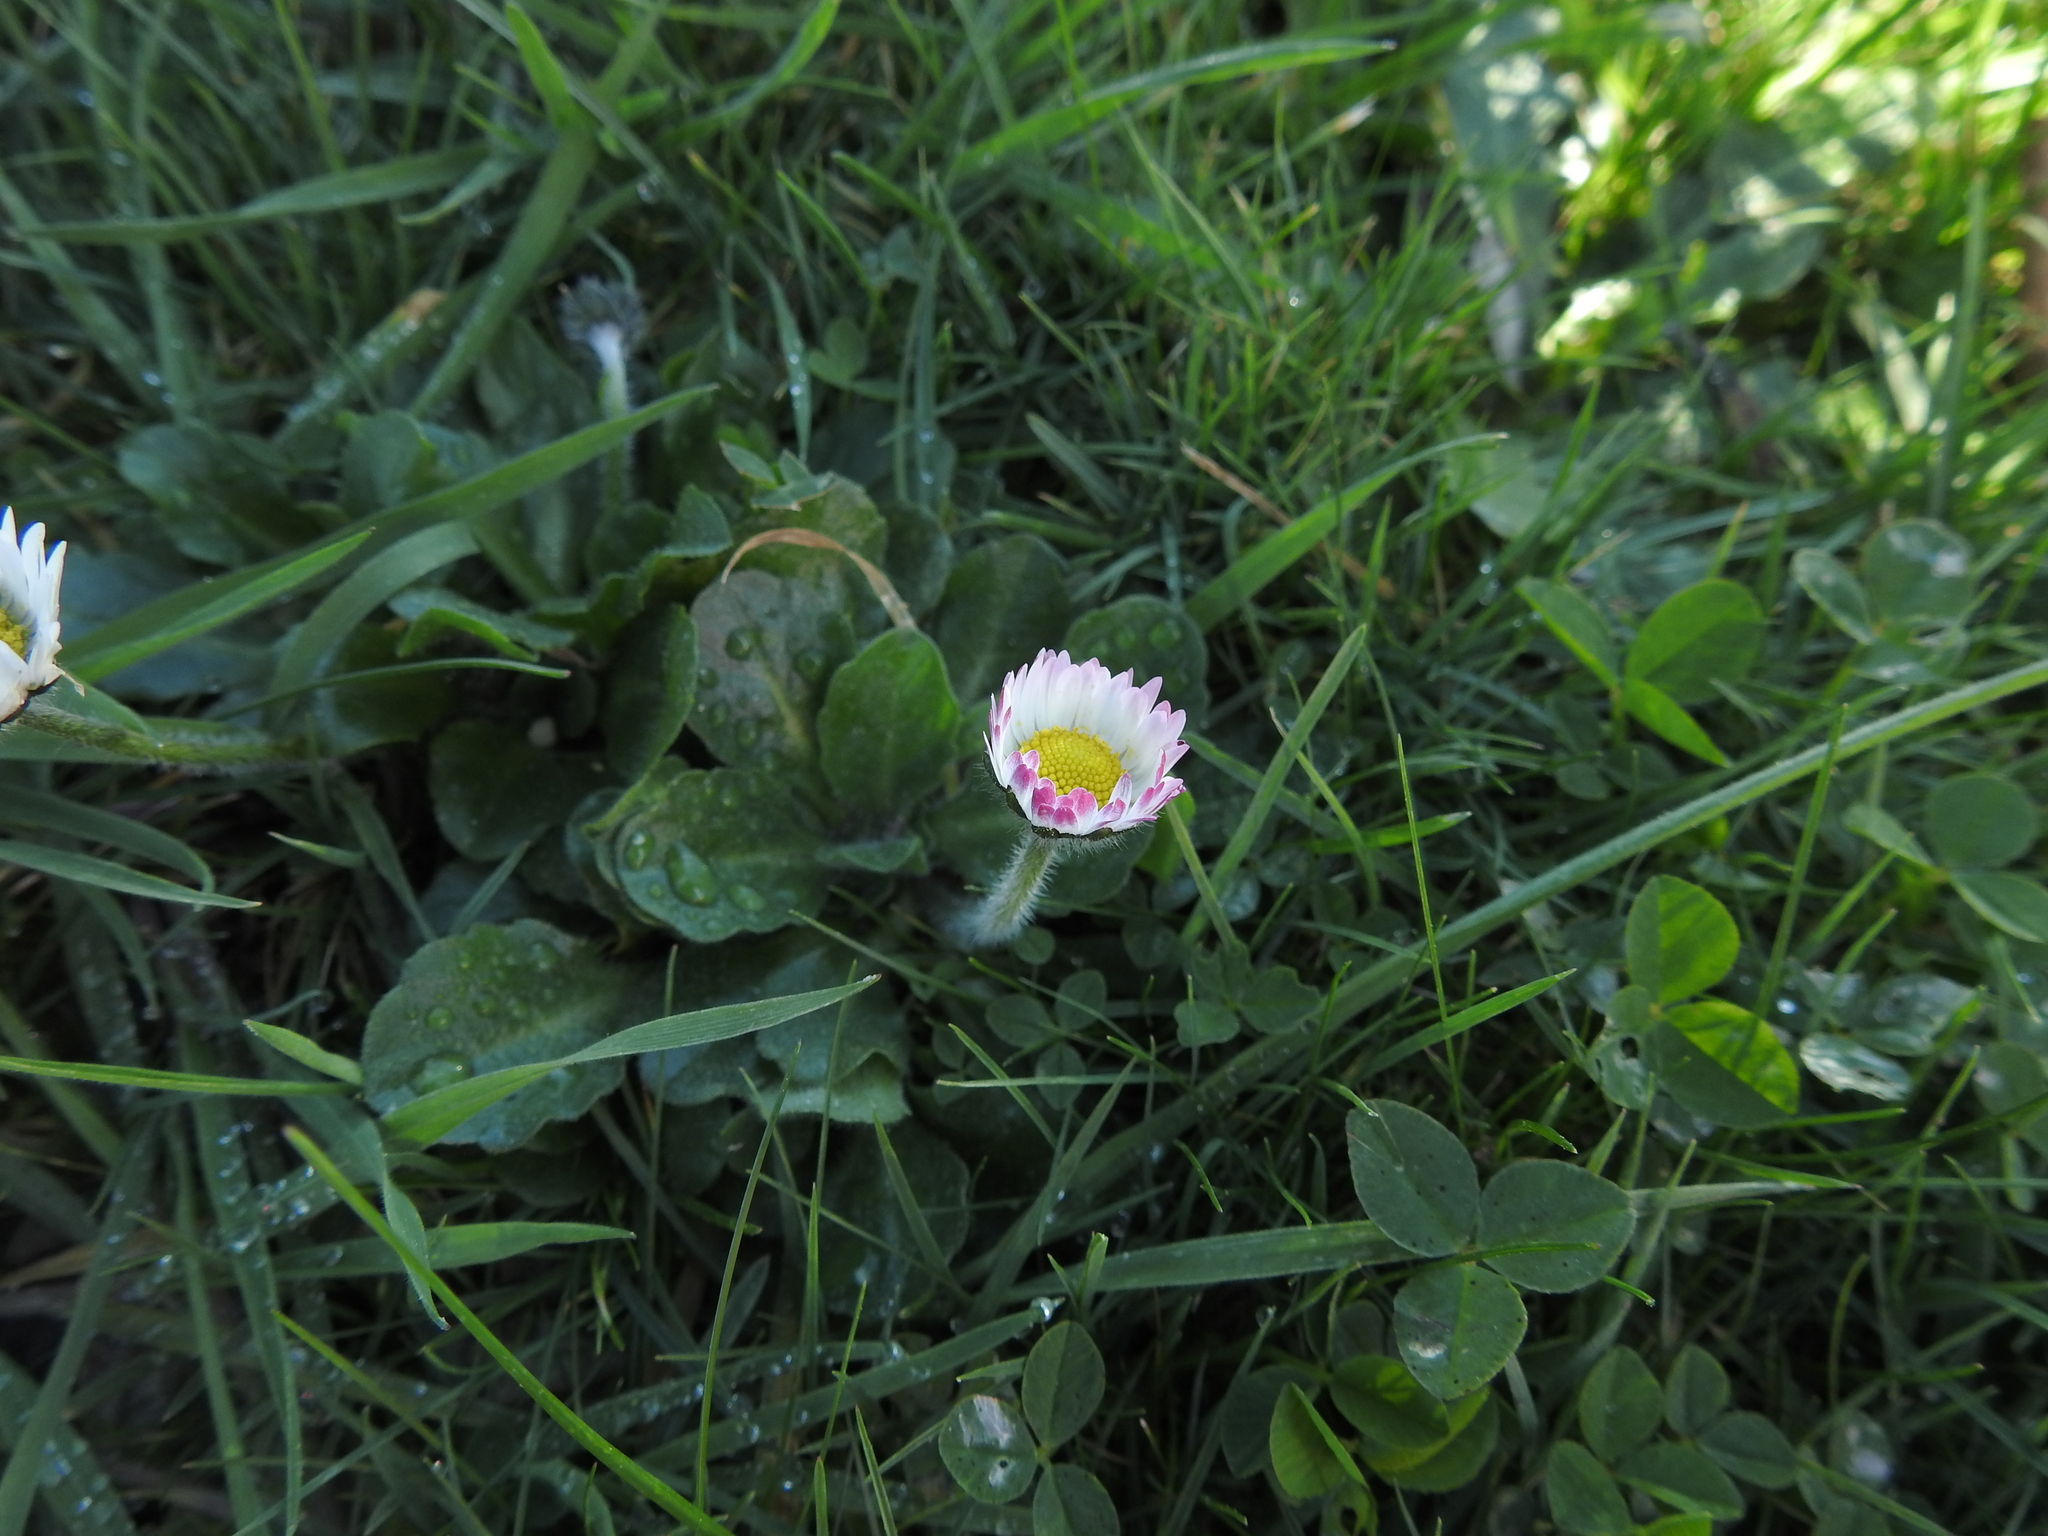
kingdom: Plantae
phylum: Tracheophyta
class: Magnoliopsida
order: Asterales
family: Asteraceae
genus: Bellis
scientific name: Bellis perennis
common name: Lawndaisy
